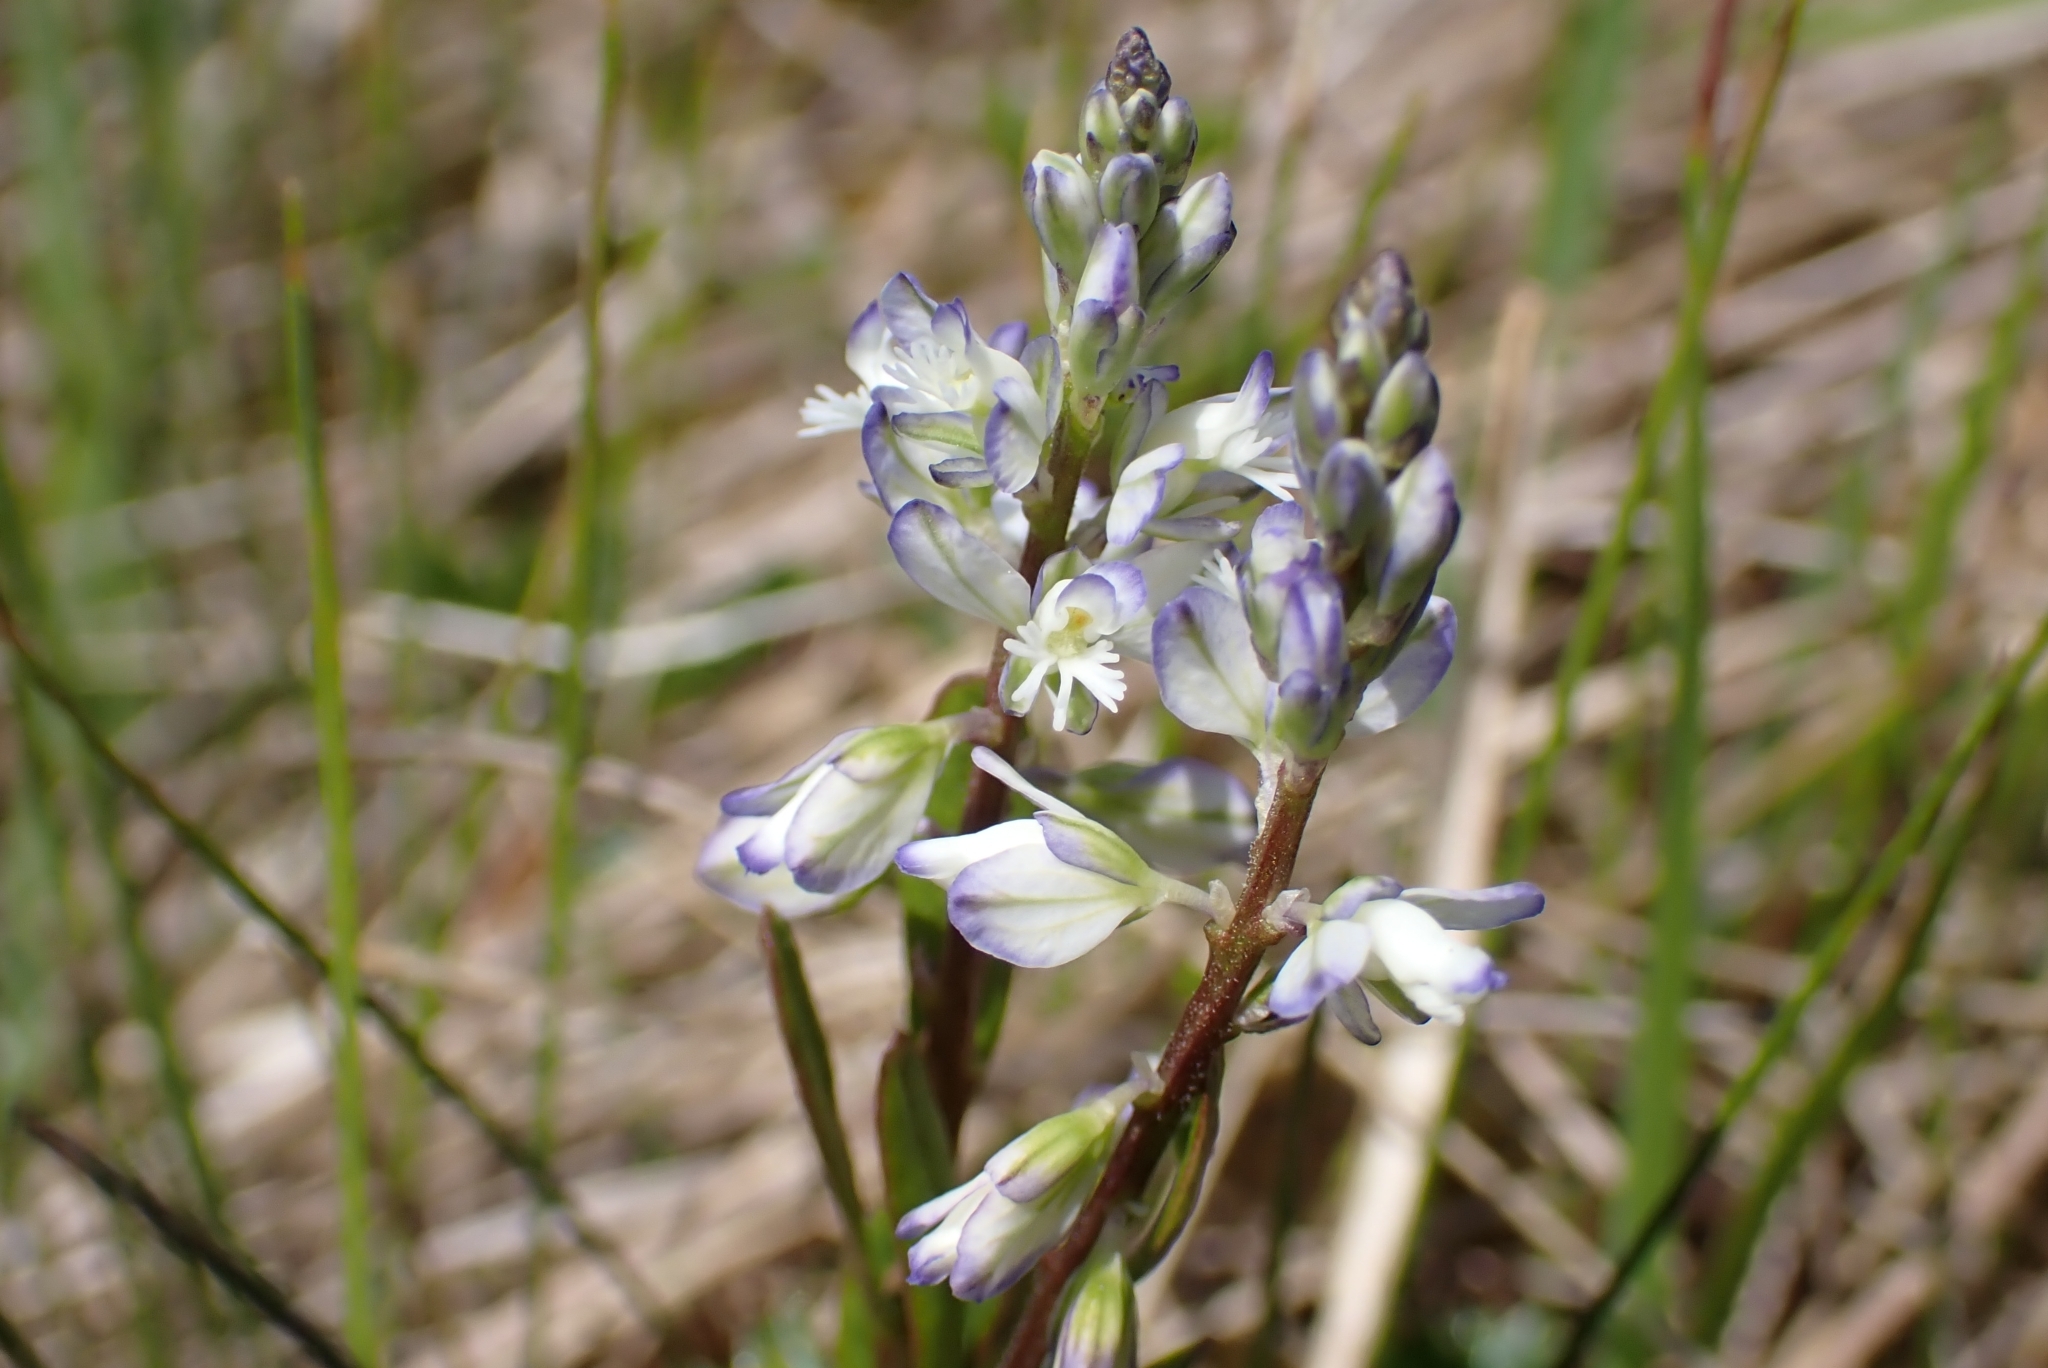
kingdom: Plantae
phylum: Tracheophyta
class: Magnoliopsida
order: Fabales
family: Polygalaceae
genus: Polygala
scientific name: Polygala amarella
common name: Dwarf milkwort
